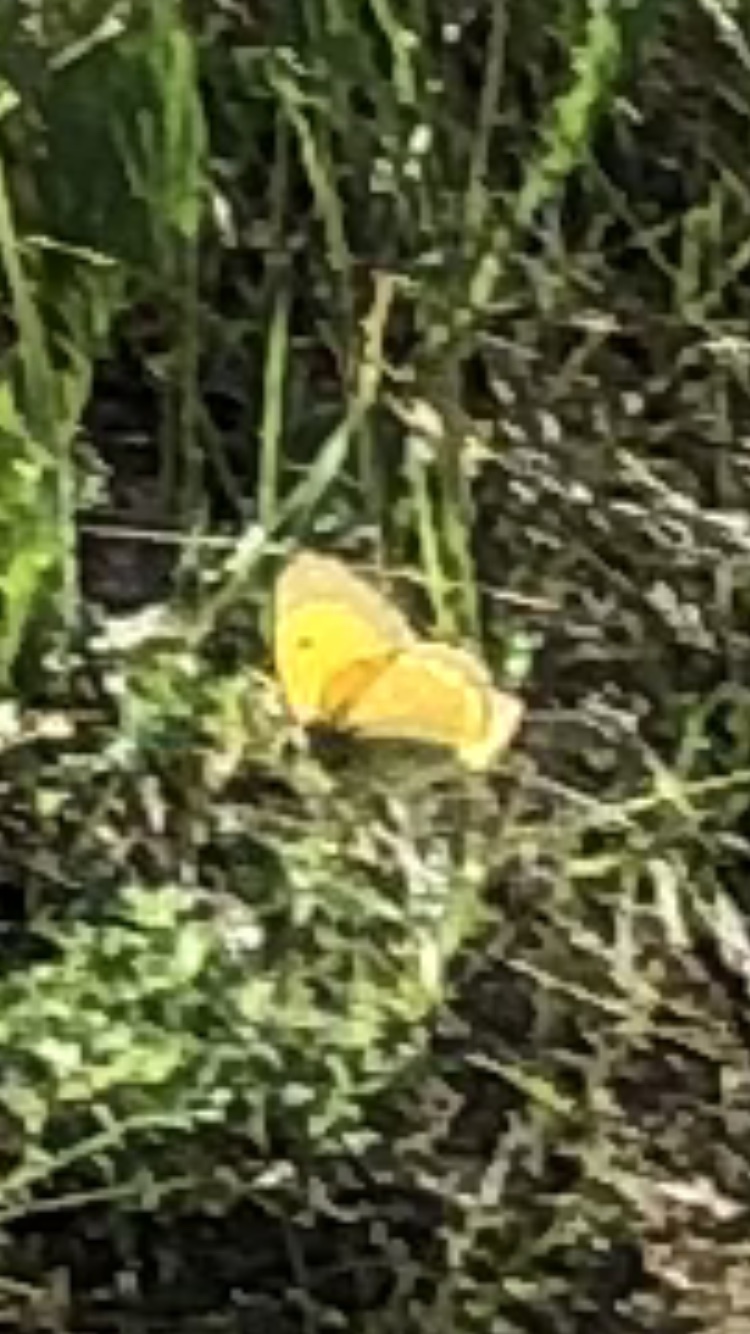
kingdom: Animalia
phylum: Arthropoda
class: Insecta
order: Lepidoptera
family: Pieridae
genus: Colias
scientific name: Colias myrmidone
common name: Danube clouded yellow
